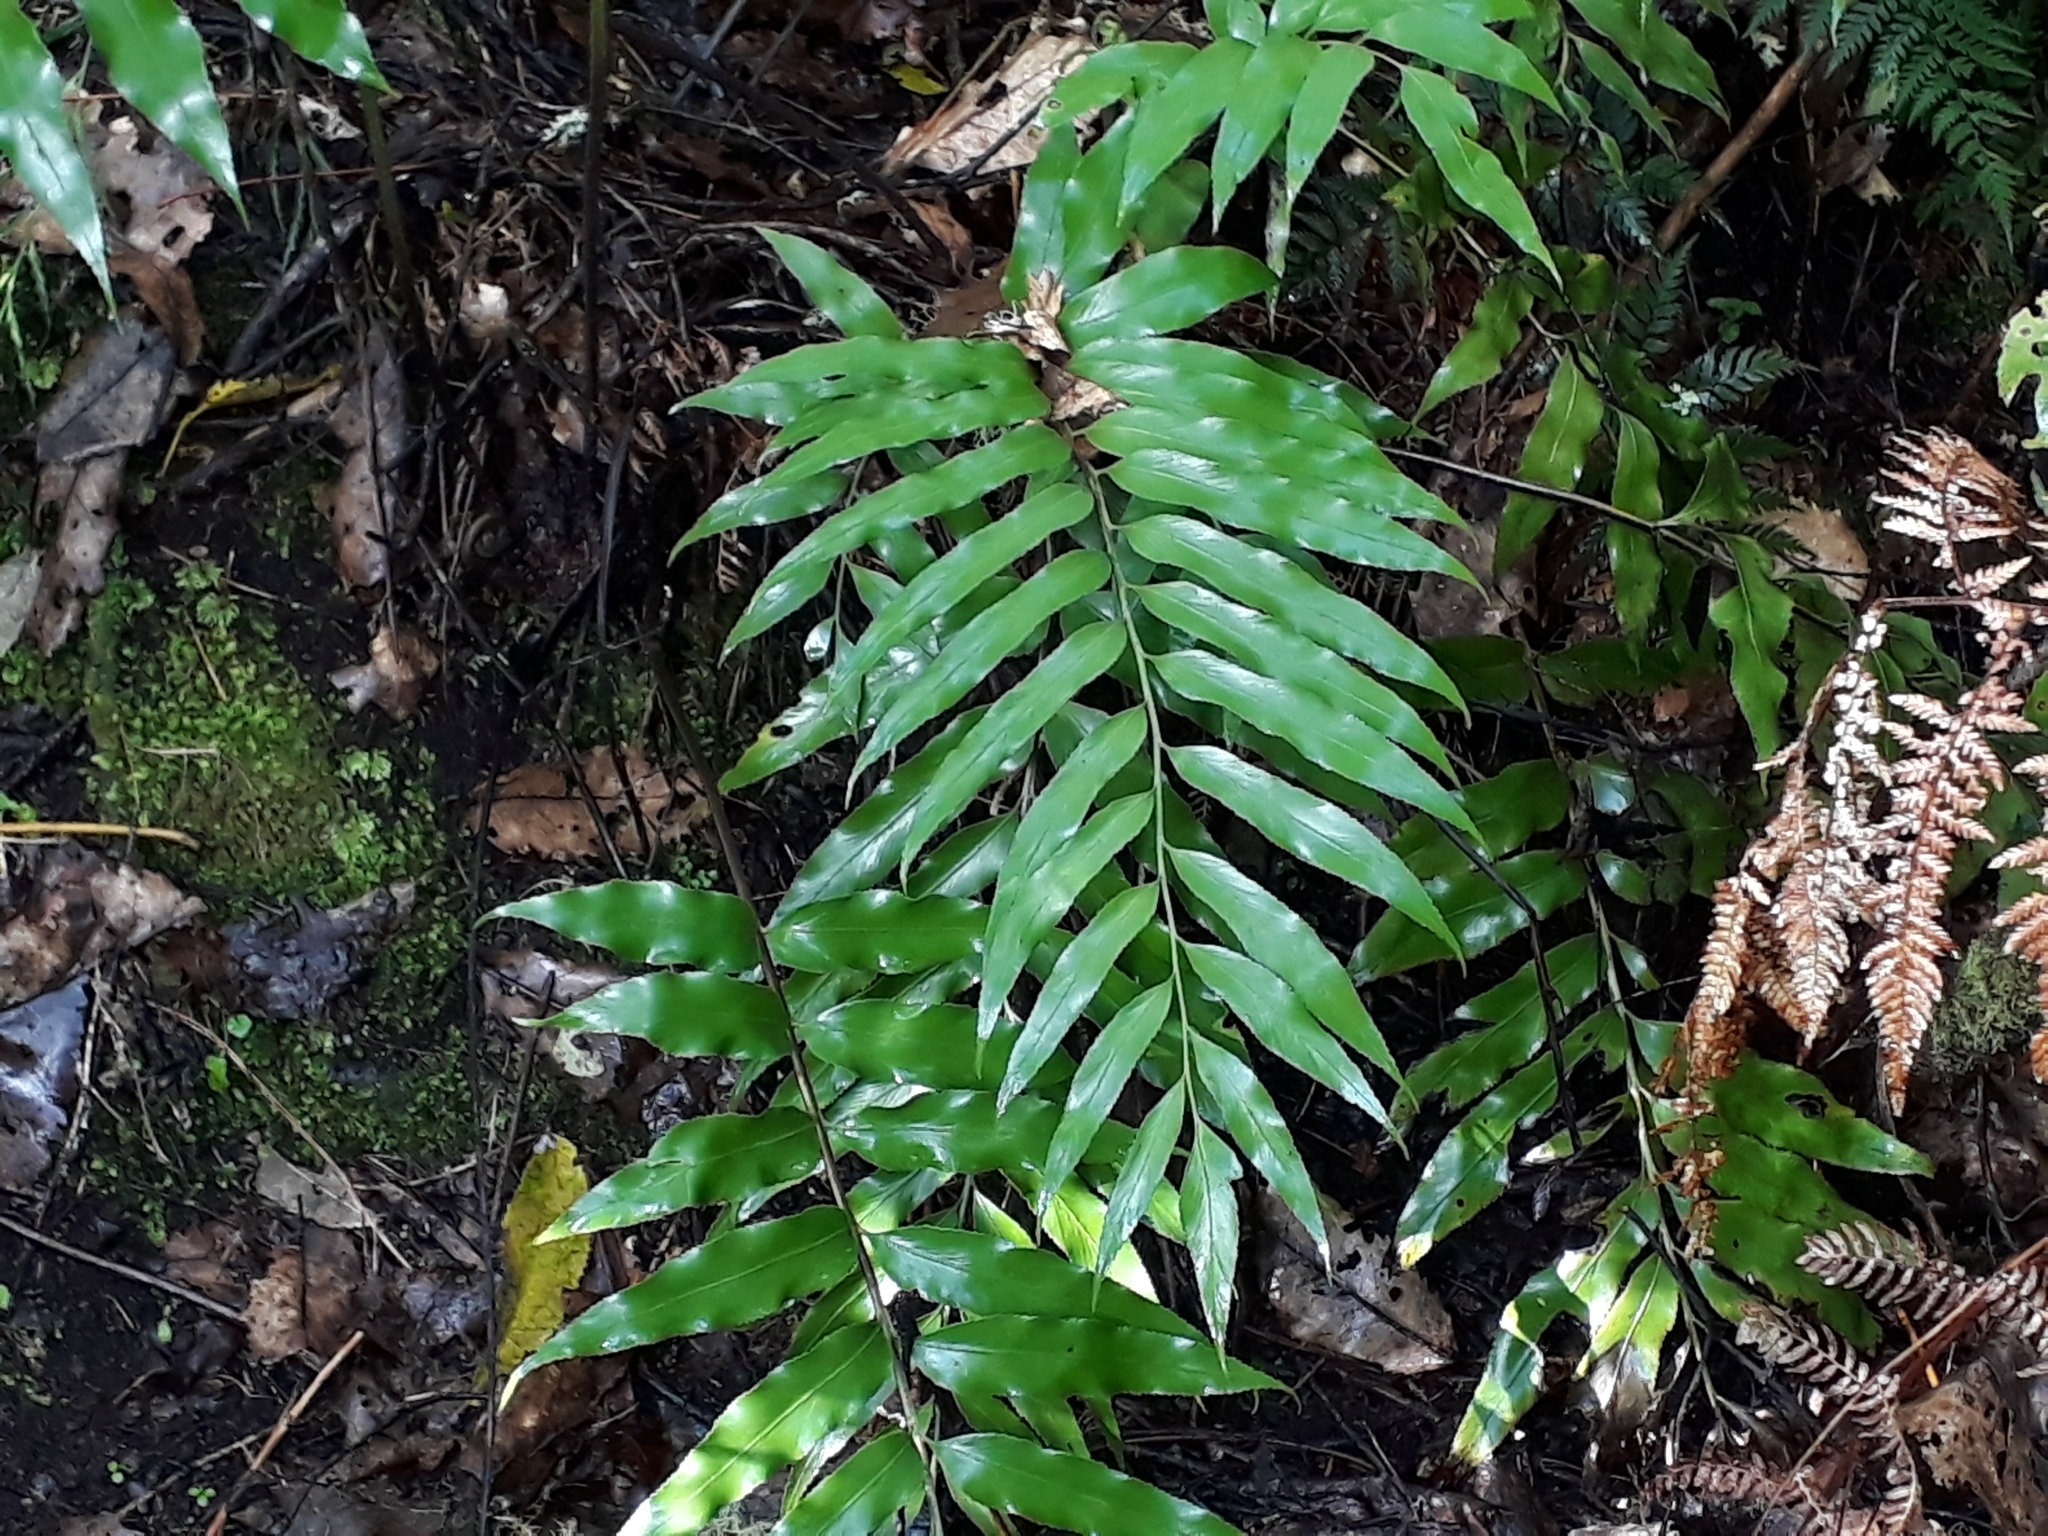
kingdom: Plantae
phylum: Tracheophyta
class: Polypodiopsida
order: Polypodiales
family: Aspleniaceae
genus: Asplenium
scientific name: Asplenium oblongifolium
